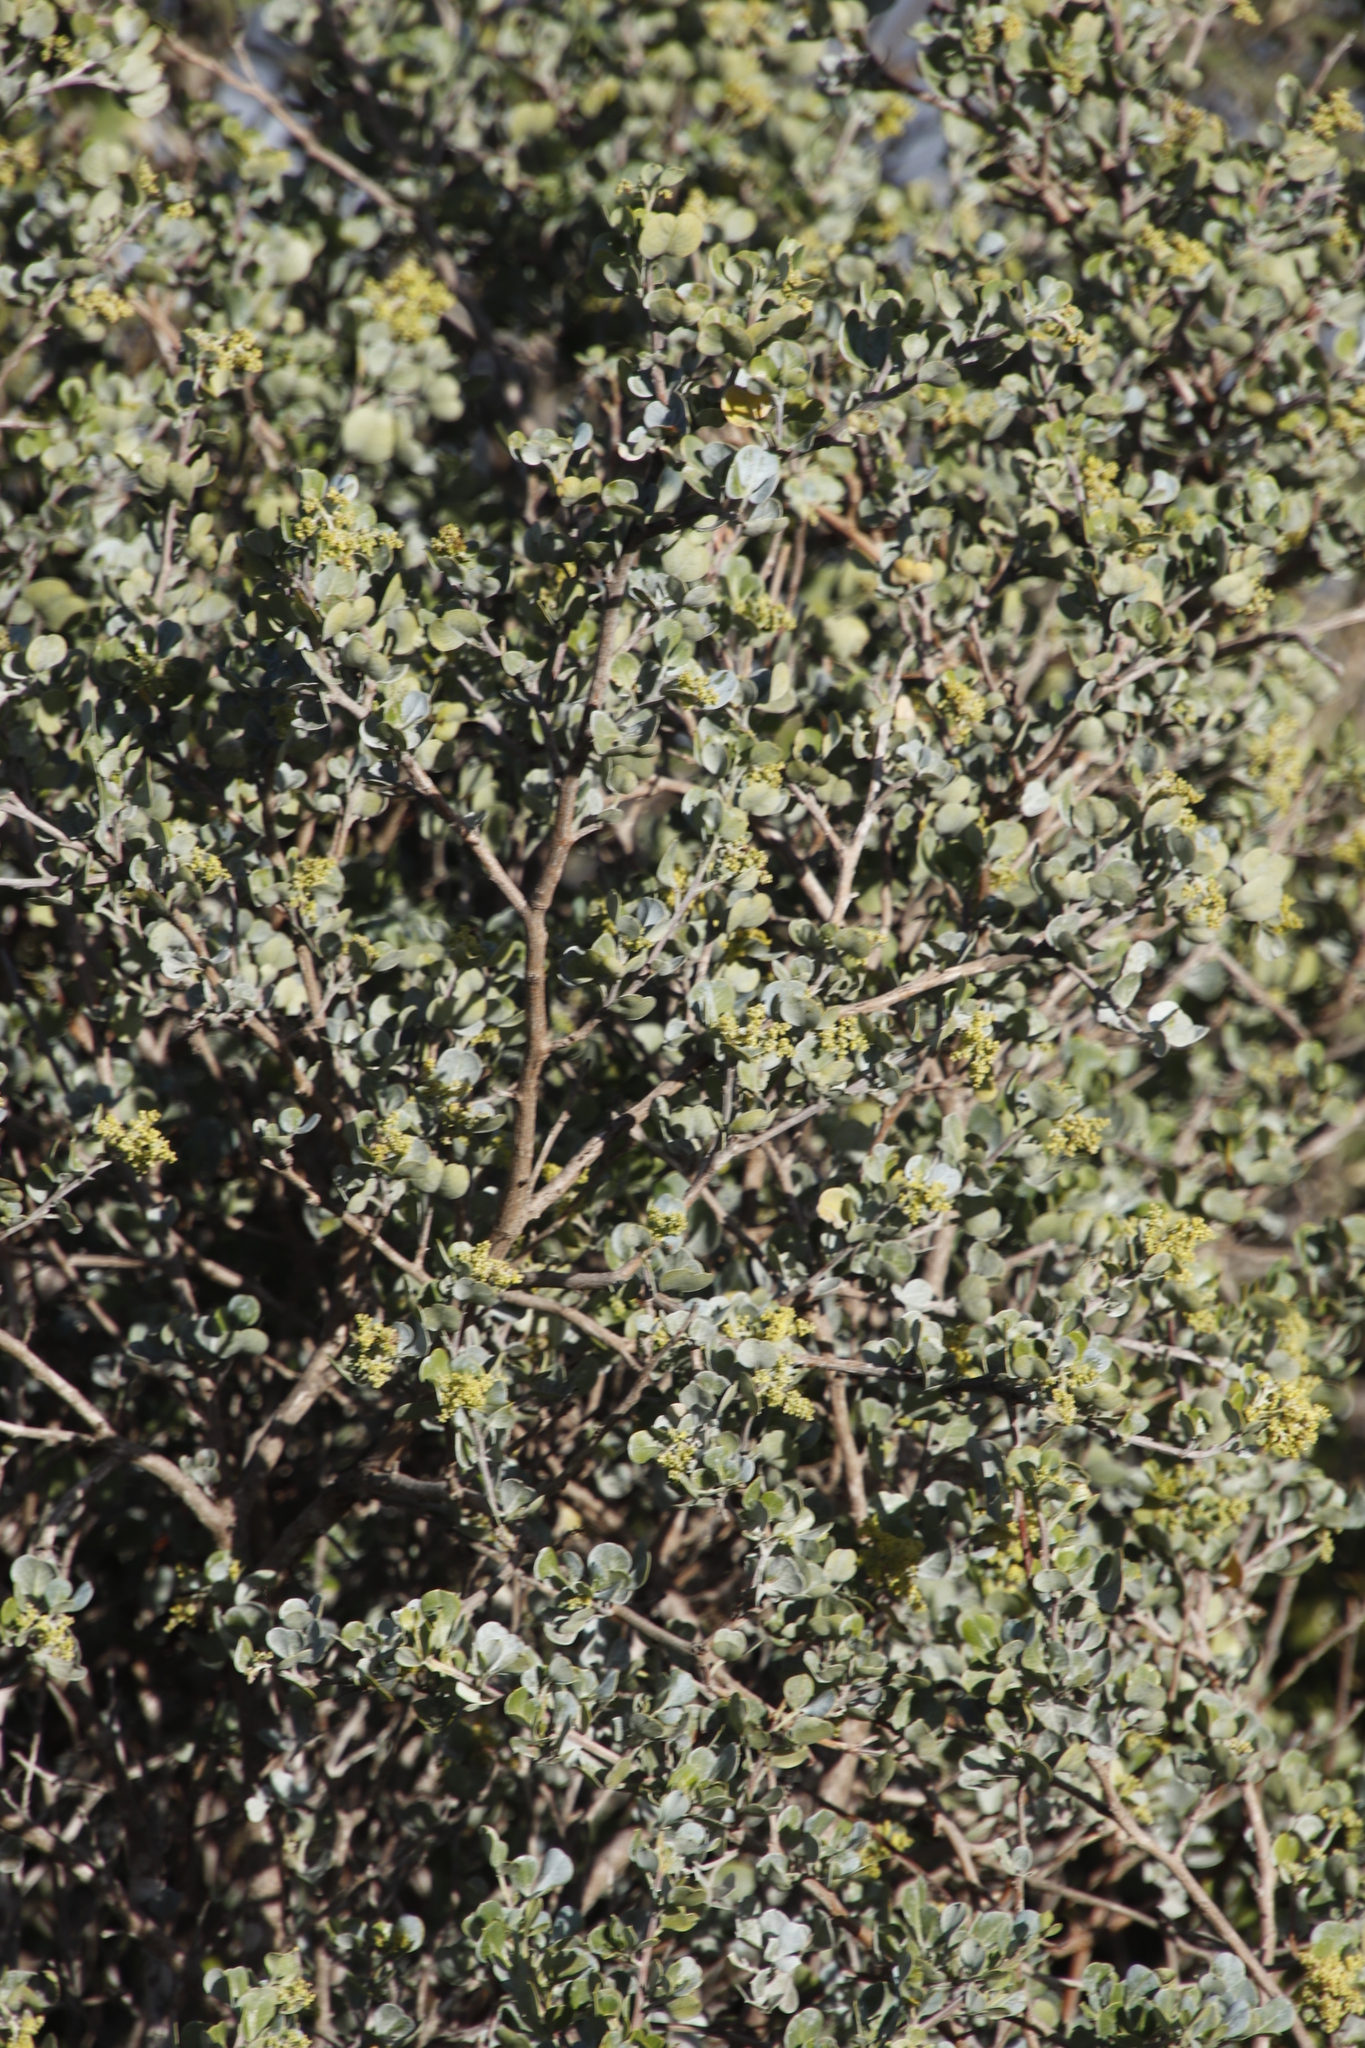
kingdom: Plantae
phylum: Tracheophyta
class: Magnoliopsida
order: Sapindales
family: Anacardiaceae
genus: Searsia
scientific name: Searsia glauca
